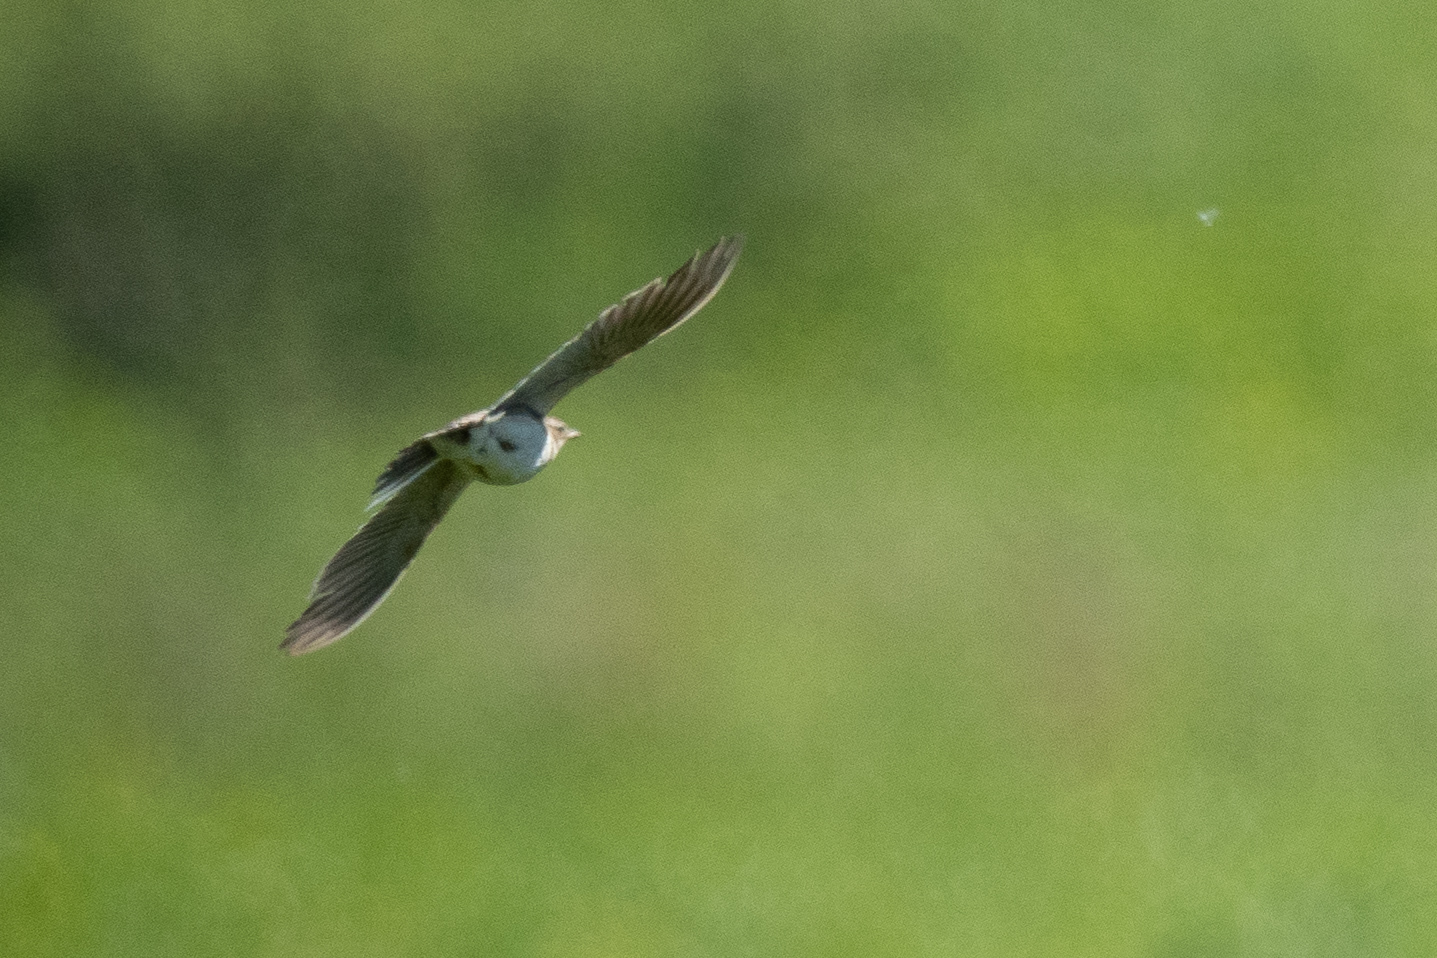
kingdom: Animalia
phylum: Chordata
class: Aves
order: Passeriformes
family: Alaudidae
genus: Alauda
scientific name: Alauda arvensis
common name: Eurasian skylark
